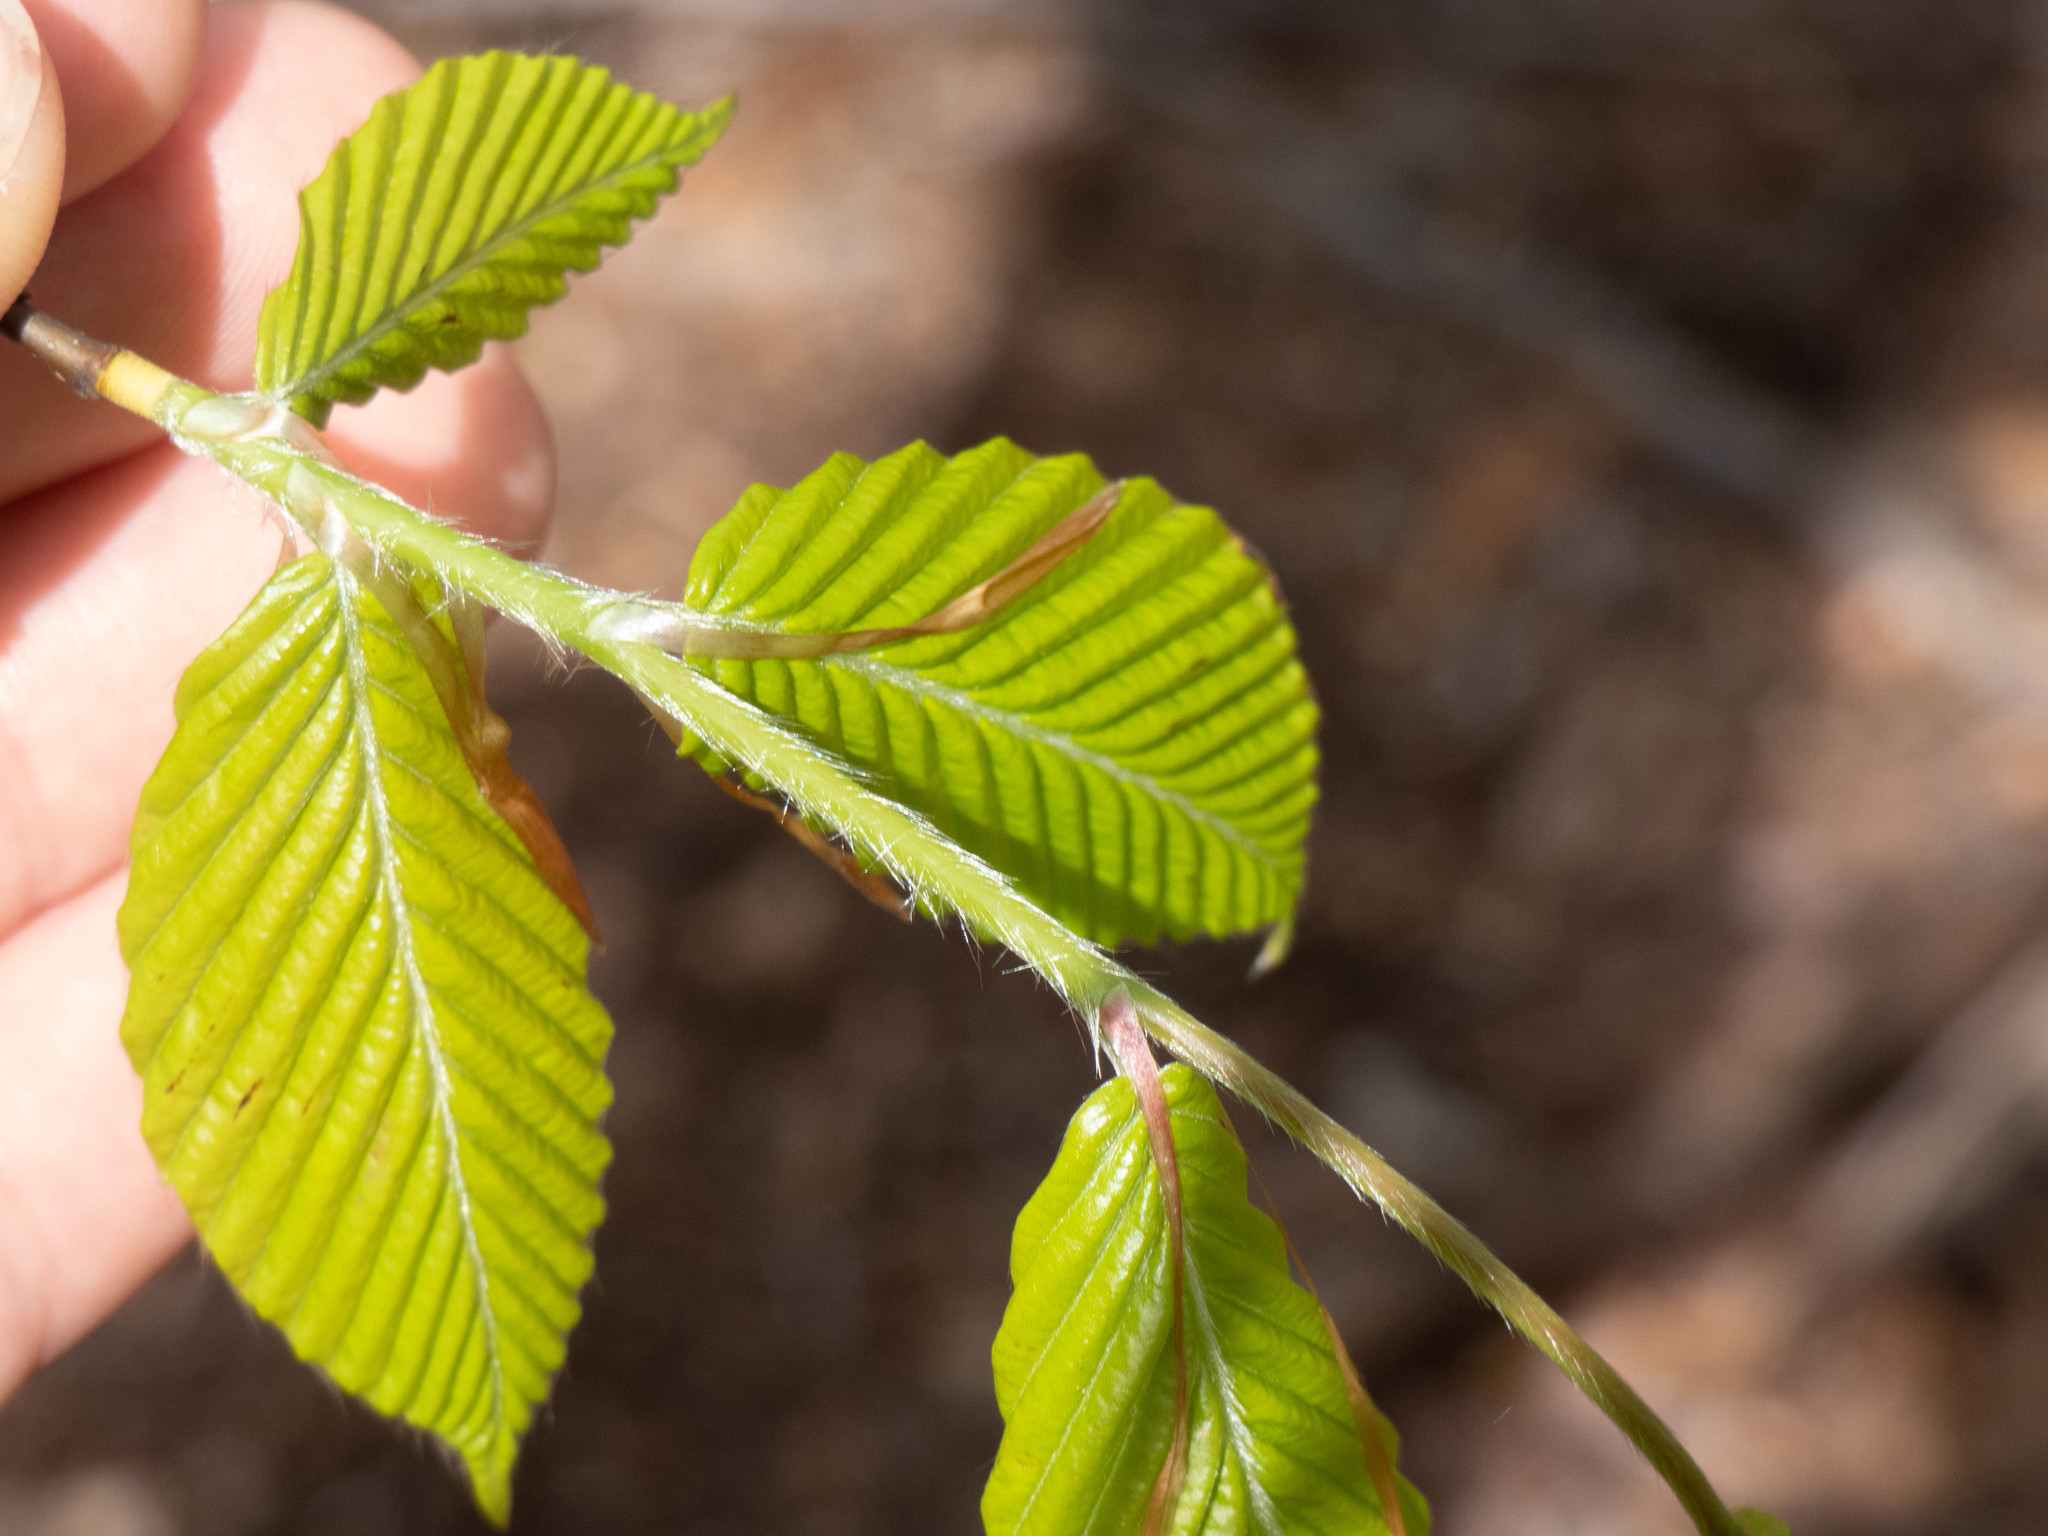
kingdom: Plantae
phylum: Tracheophyta
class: Magnoliopsida
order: Fagales
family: Fagaceae
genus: Fagus
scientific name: Fagus grandifolia
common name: American beech
